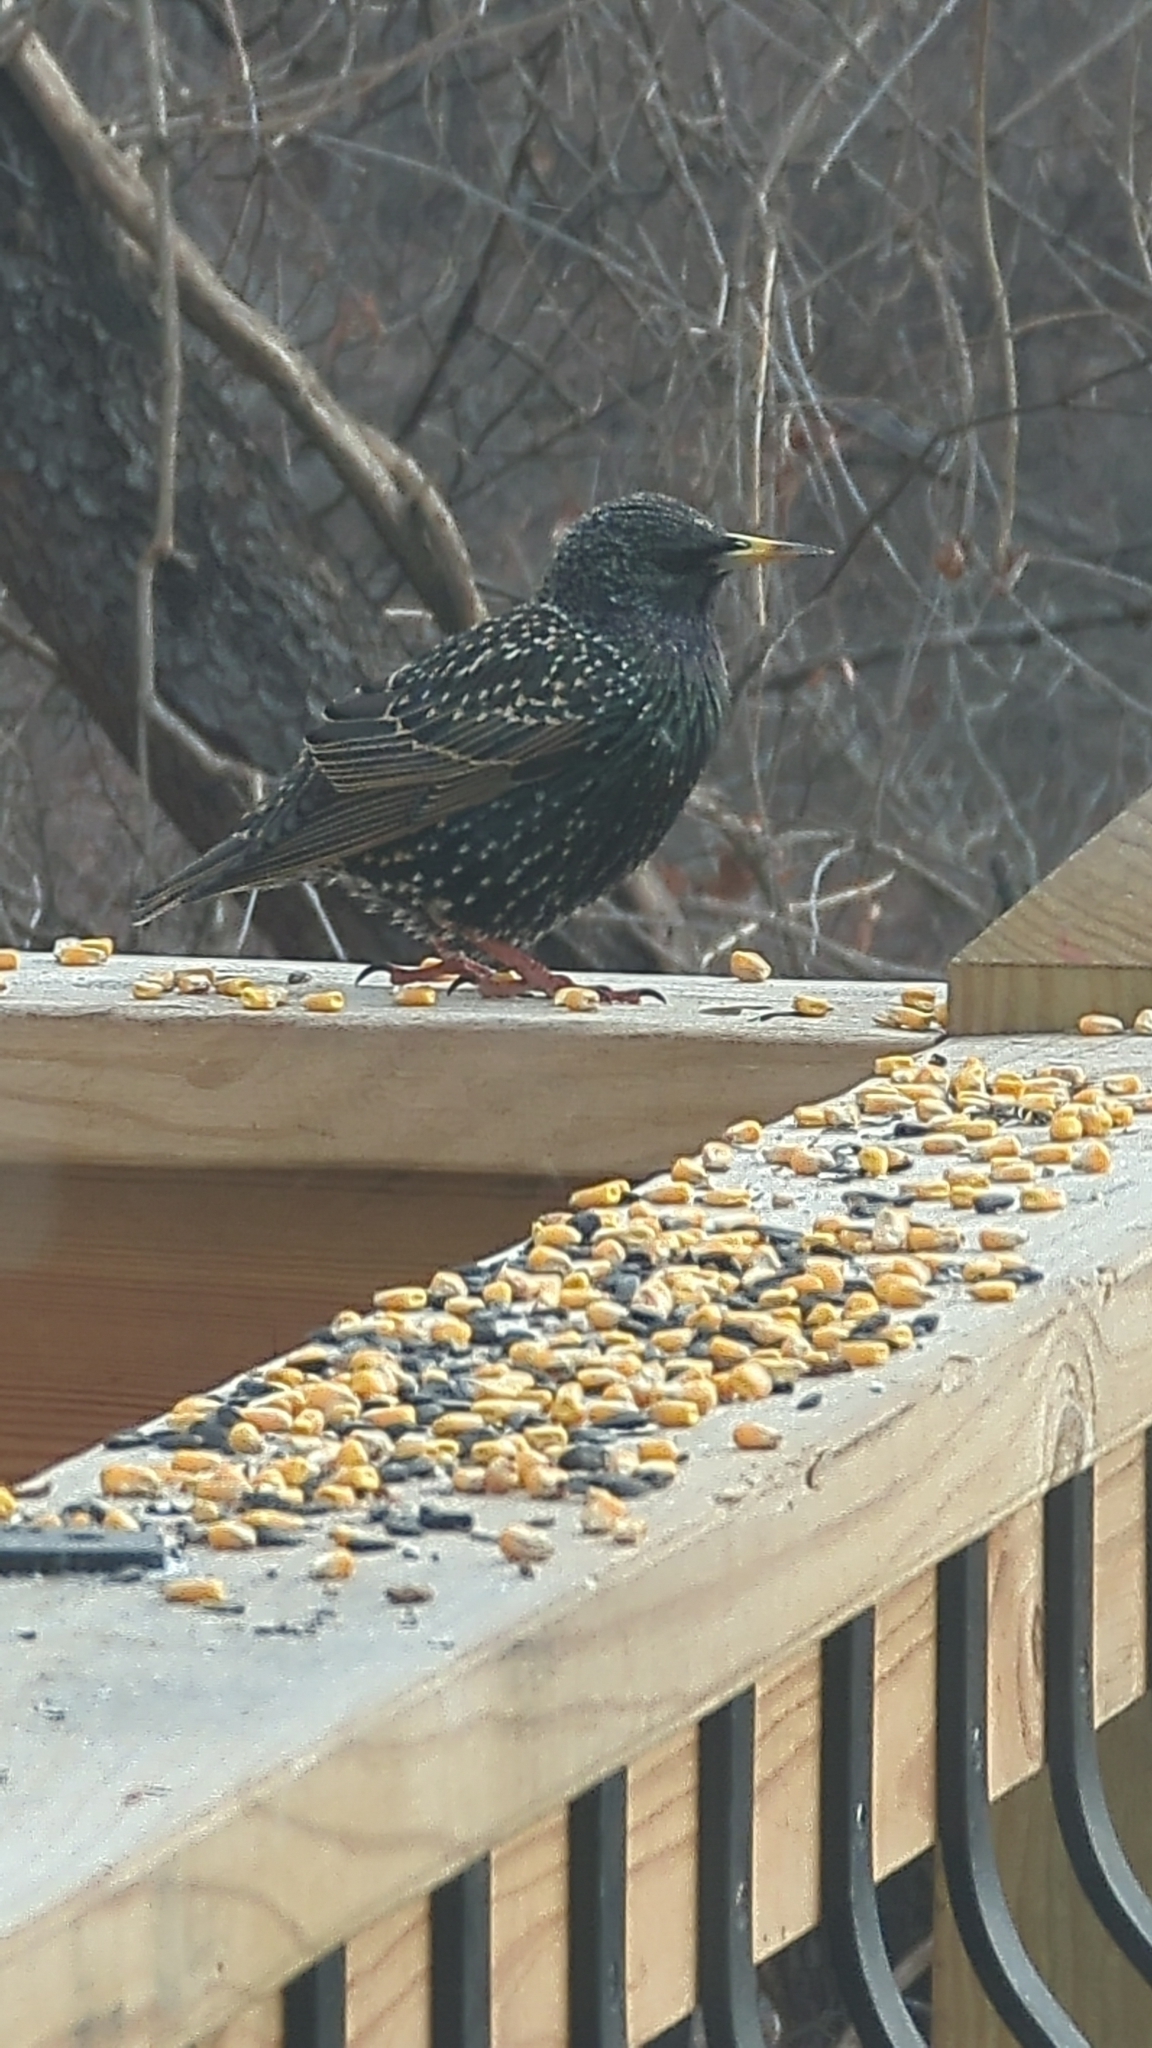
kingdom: Animalia
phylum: Chordata
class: Aves
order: Passeriformes
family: Sturnidae
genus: Sturnus
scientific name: Sturnus vulgaris
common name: Common starling
